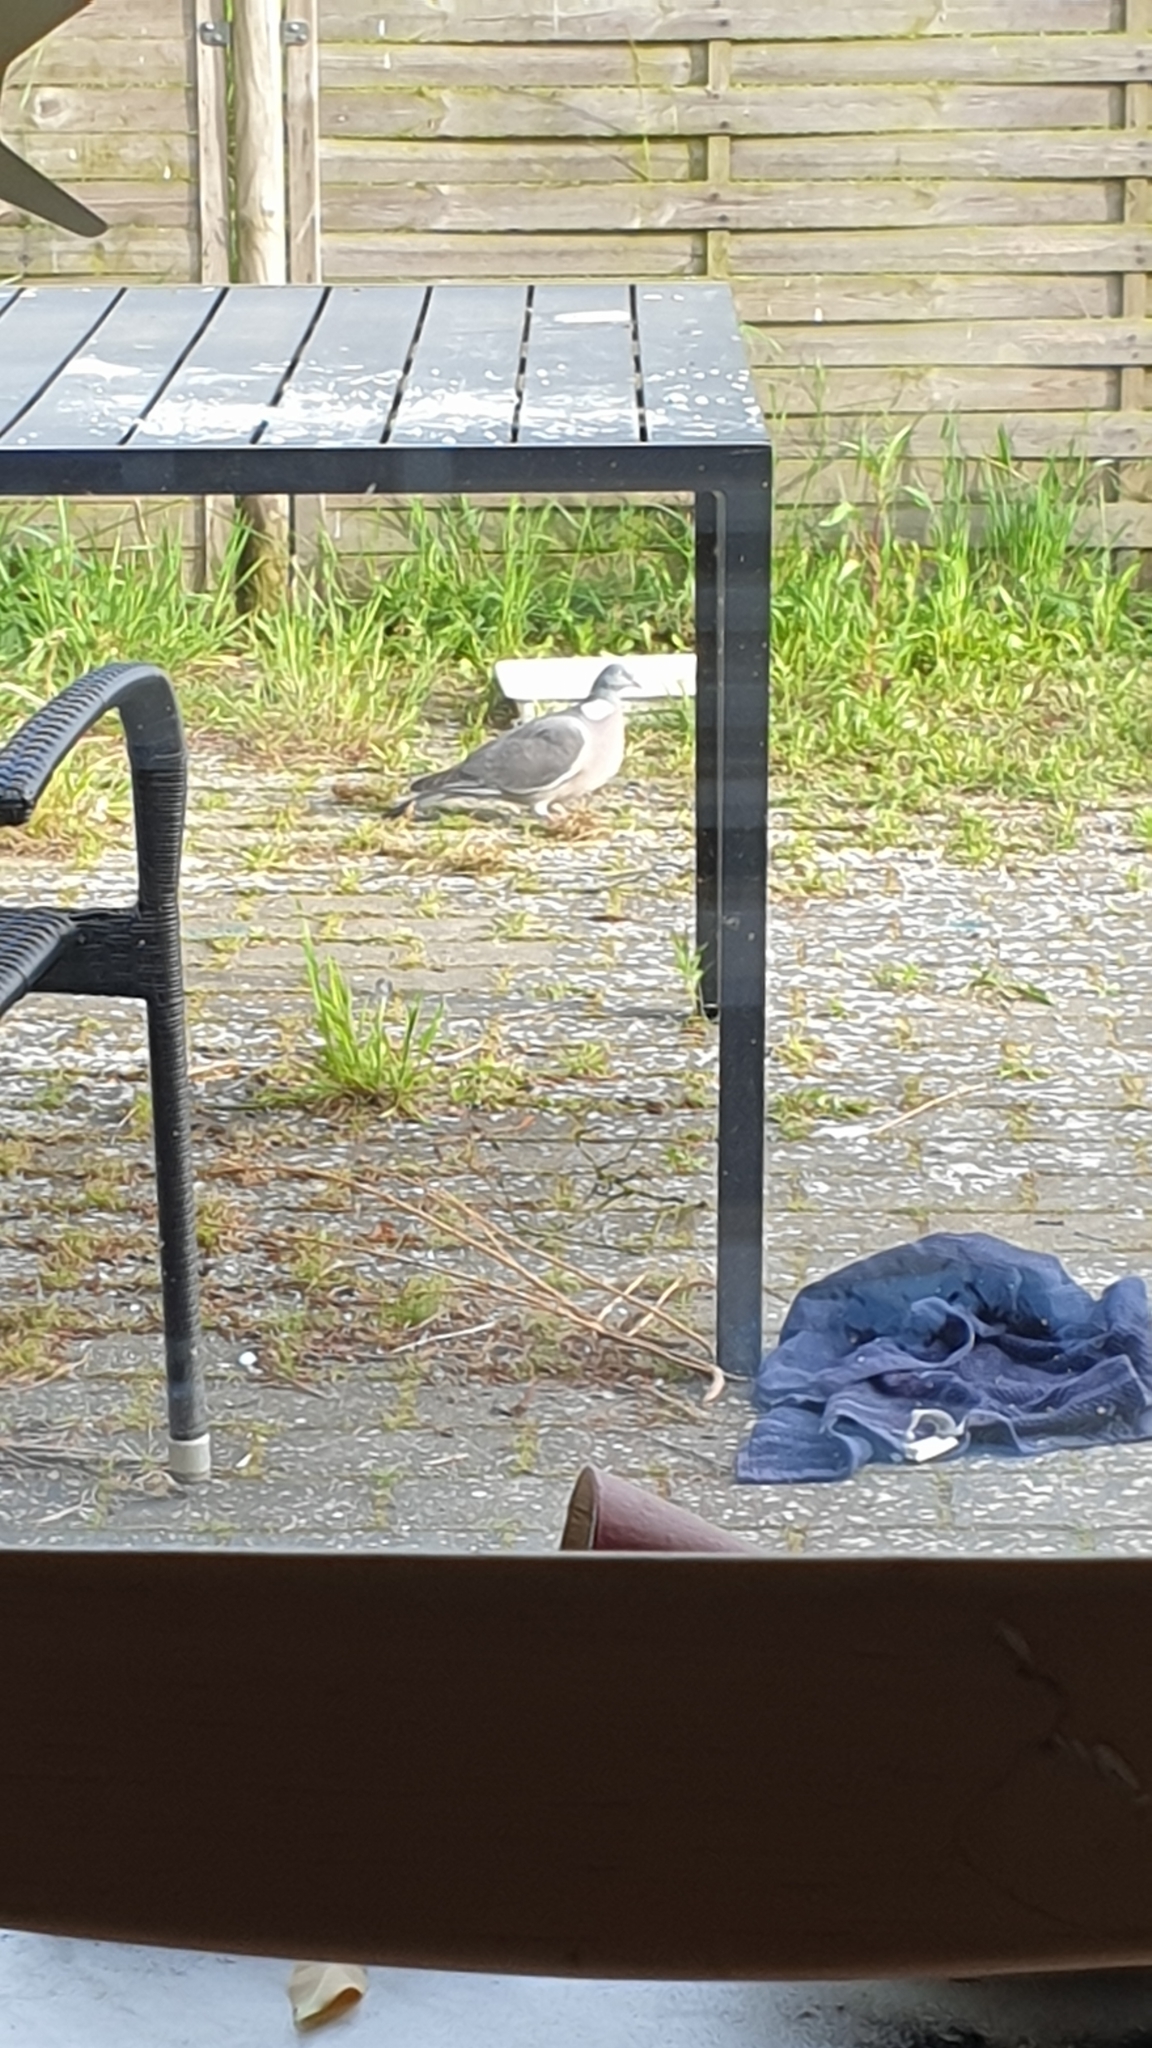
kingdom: Animalia
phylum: Chordata
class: Aves
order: Columbiformes
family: Columbidae
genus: Columba
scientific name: Columba palumbus
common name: Common wood pigeon
